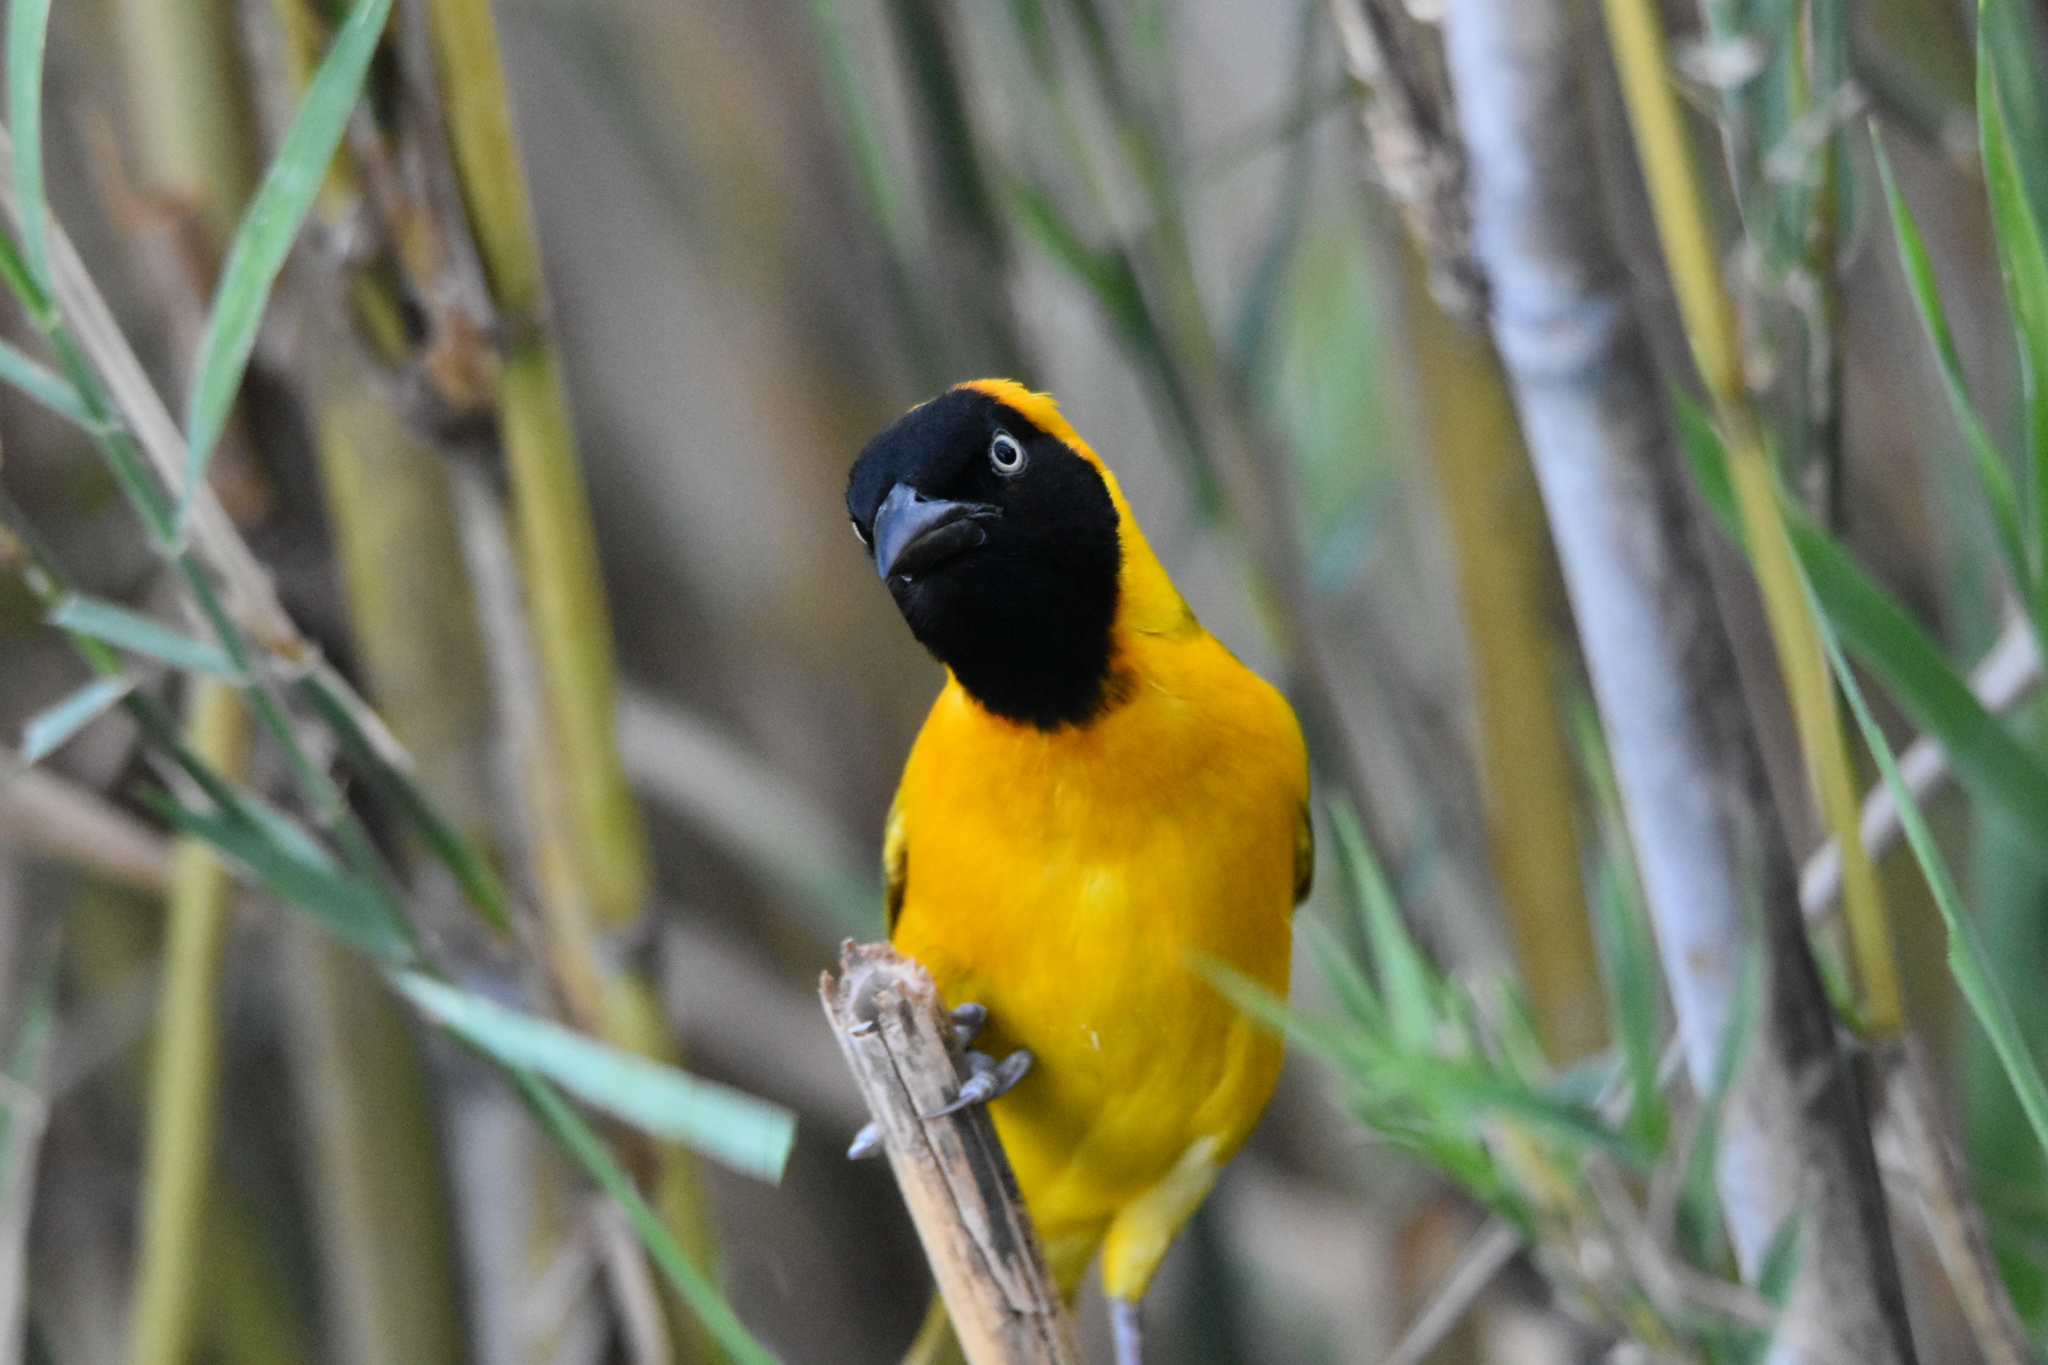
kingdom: Animalia
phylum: Chordata
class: Aves
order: Passeriformes
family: Ploceidae
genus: Ploceus
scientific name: Ploceus intermedius
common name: Lesser masked weaver
